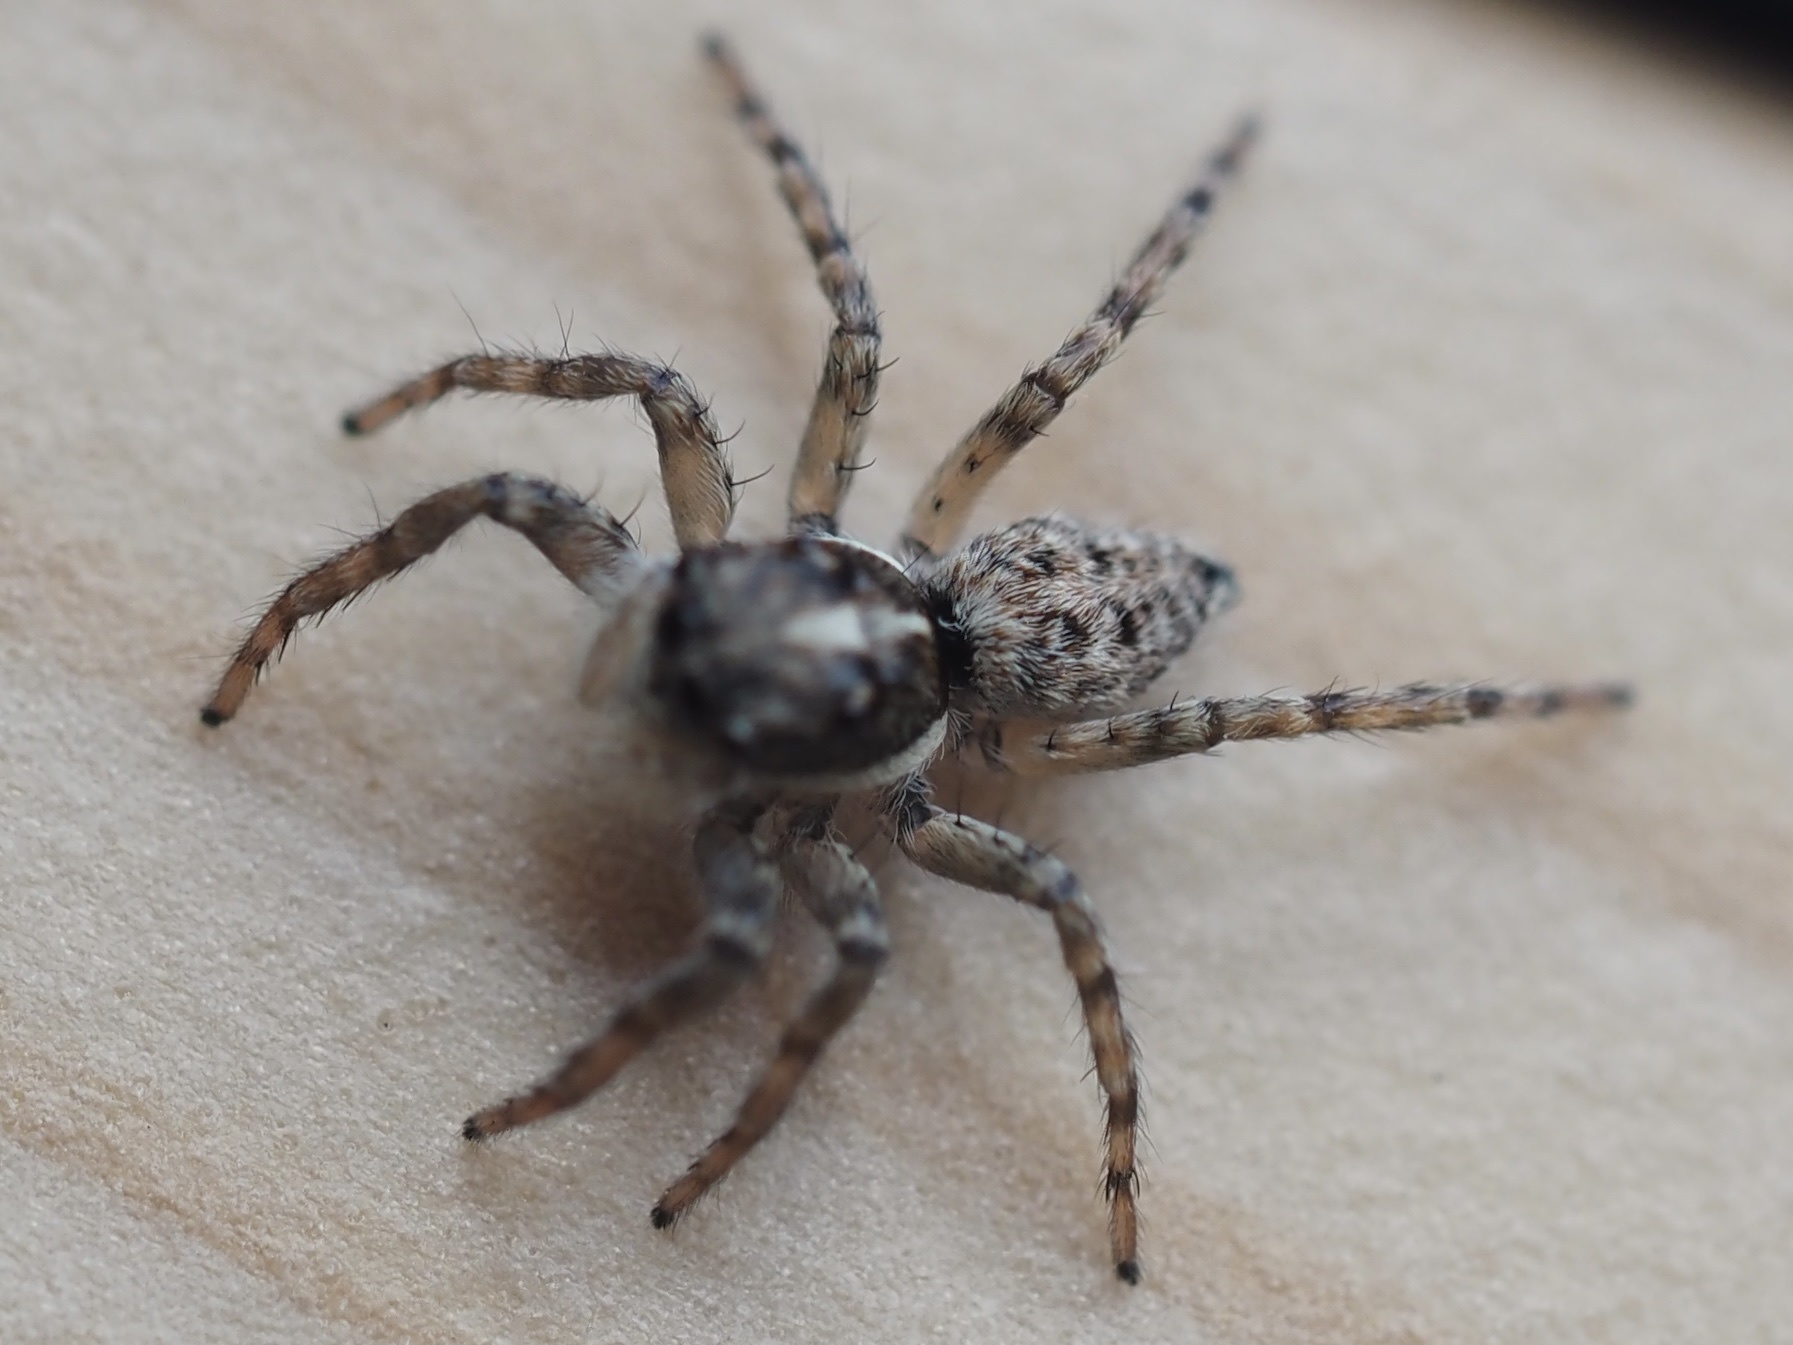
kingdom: Animalia
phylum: Arthropoda
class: Arachnida
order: Araneae
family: Salticidae
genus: Menemerus
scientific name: Menemerus semilimbatus
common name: Jumping spider
